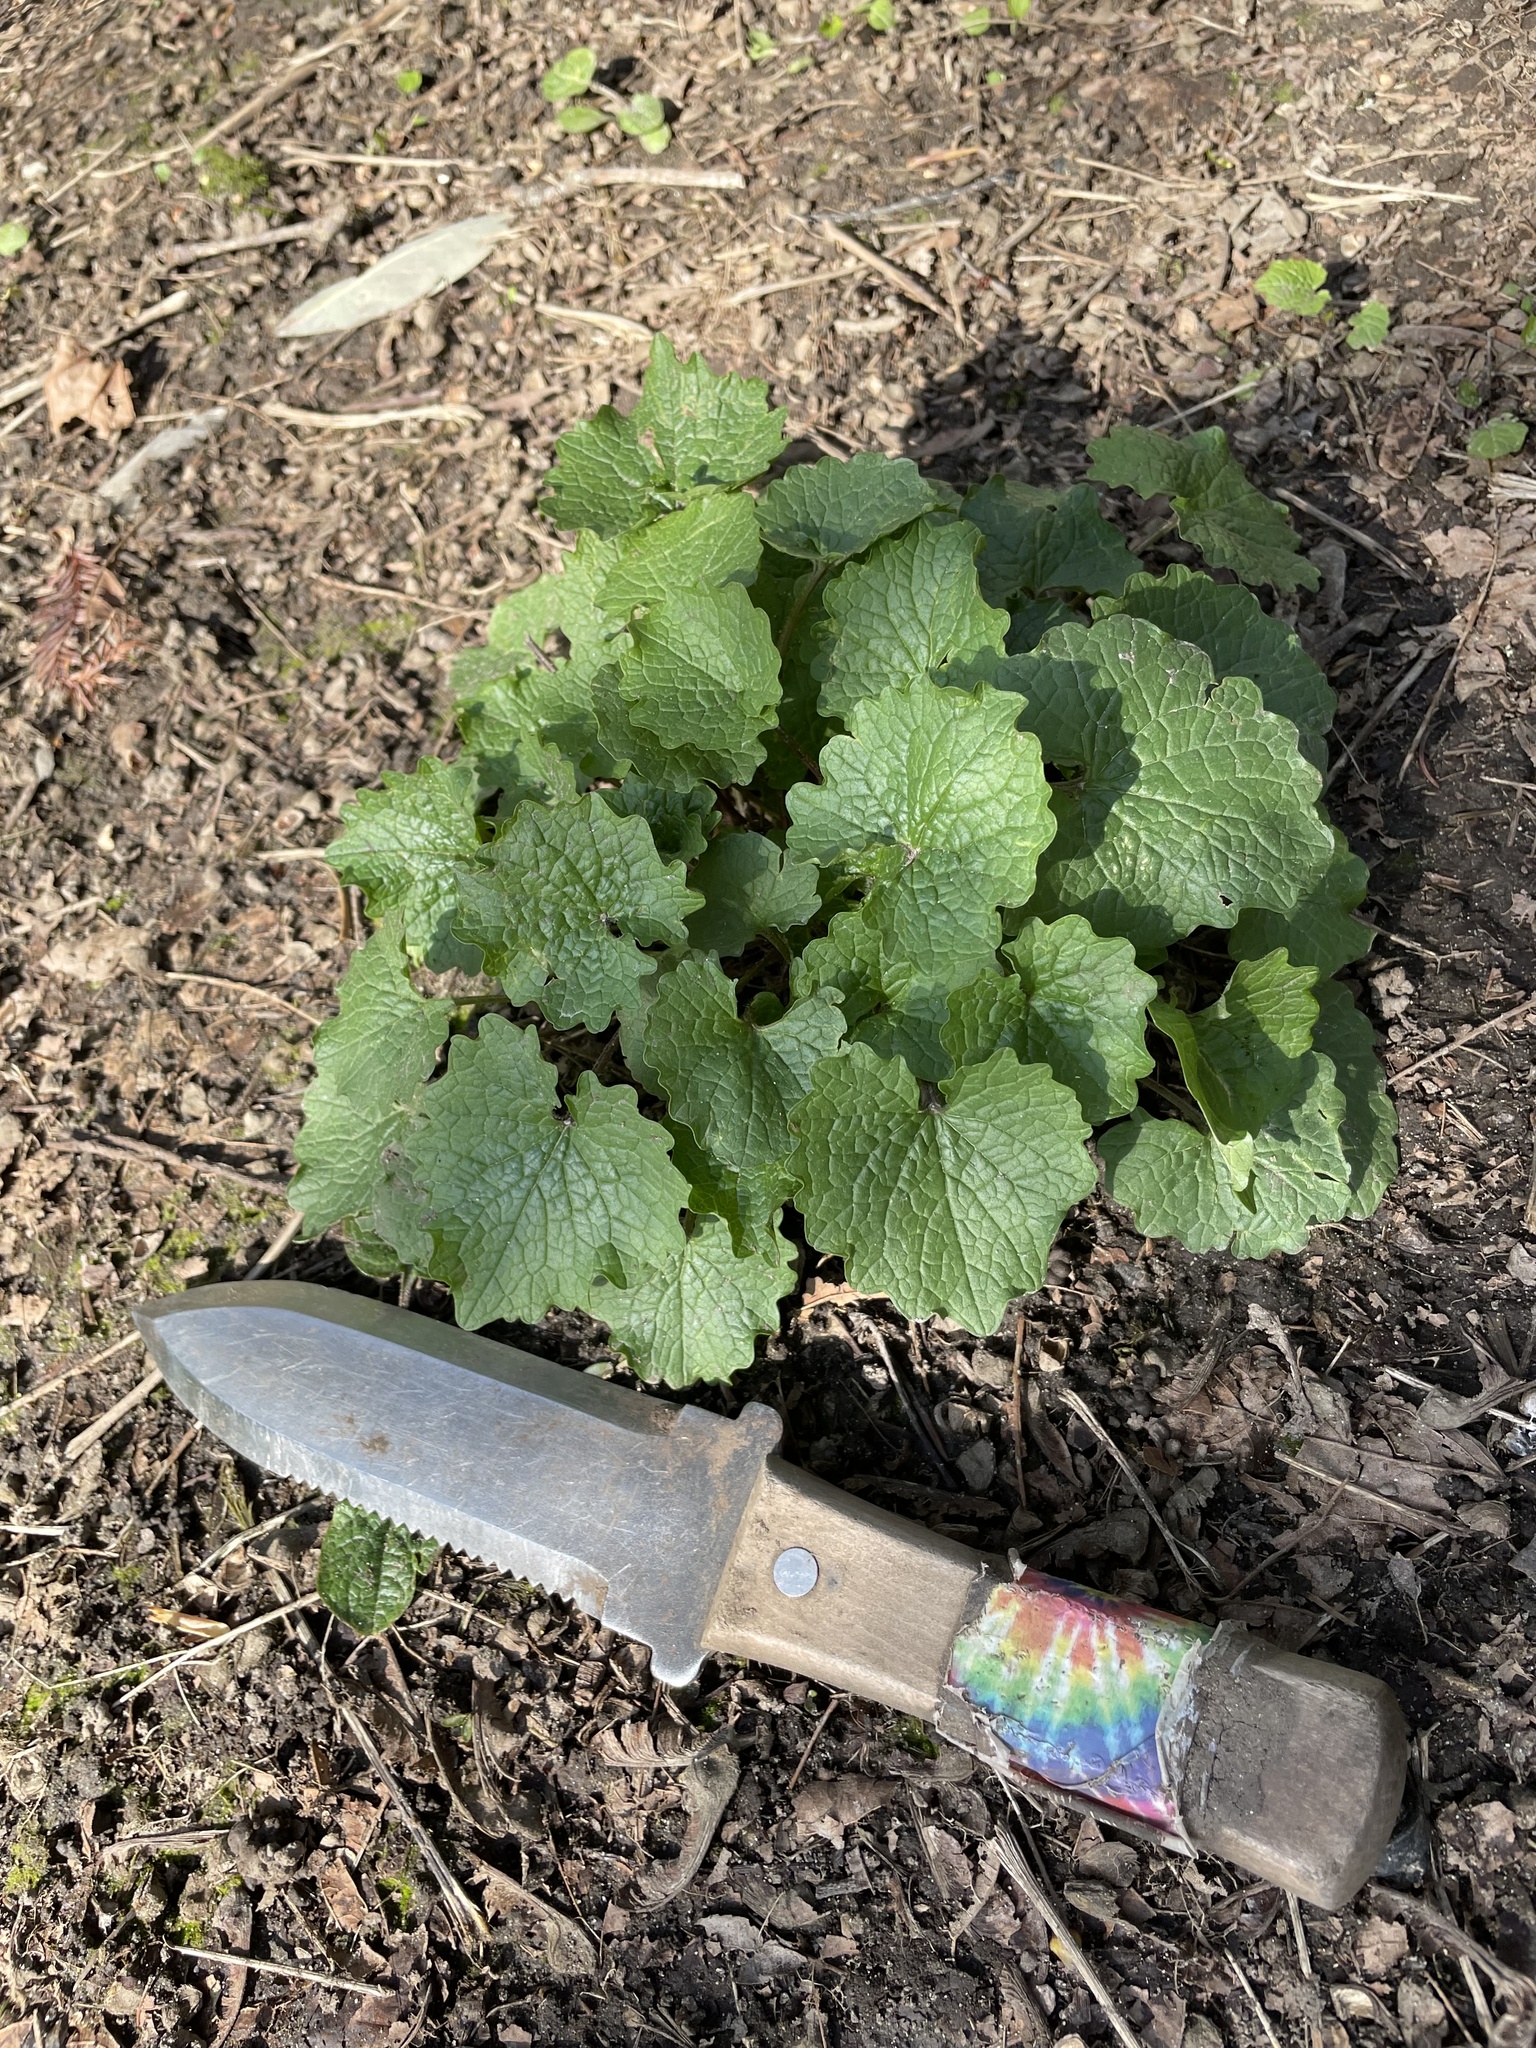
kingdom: Plantae
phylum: Tracheophyta
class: Magnoliopsida
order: Brassicales
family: Brassicaceae
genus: Alliaria
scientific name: Alliaria petiolata
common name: Garlic mustard
